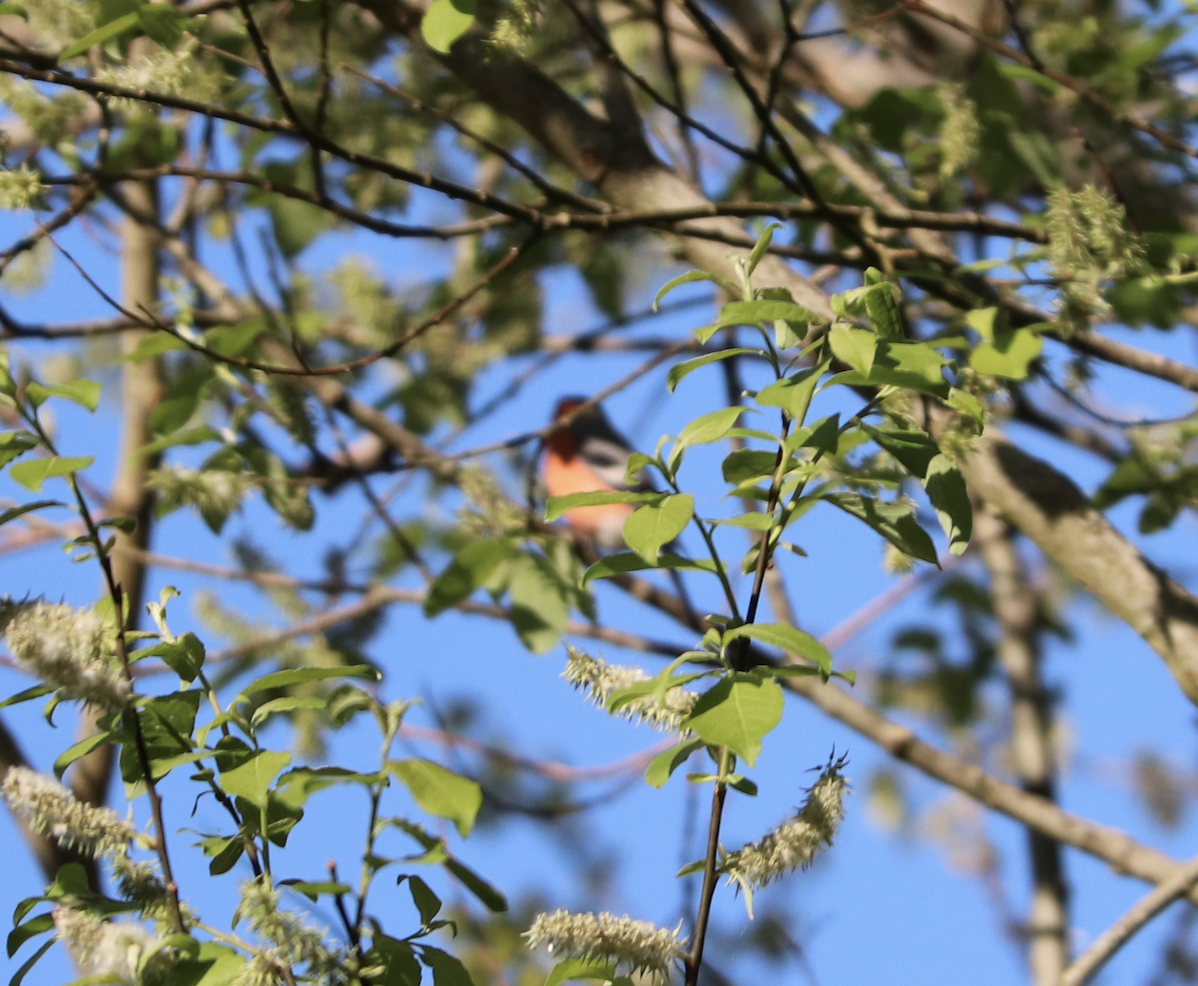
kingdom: Animalia
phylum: Chordata
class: Aves
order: Passeriformes
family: Fringillidae
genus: Pyrrhula
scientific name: Pyrrhula pyrrhula
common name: Eurasian bullfinch
